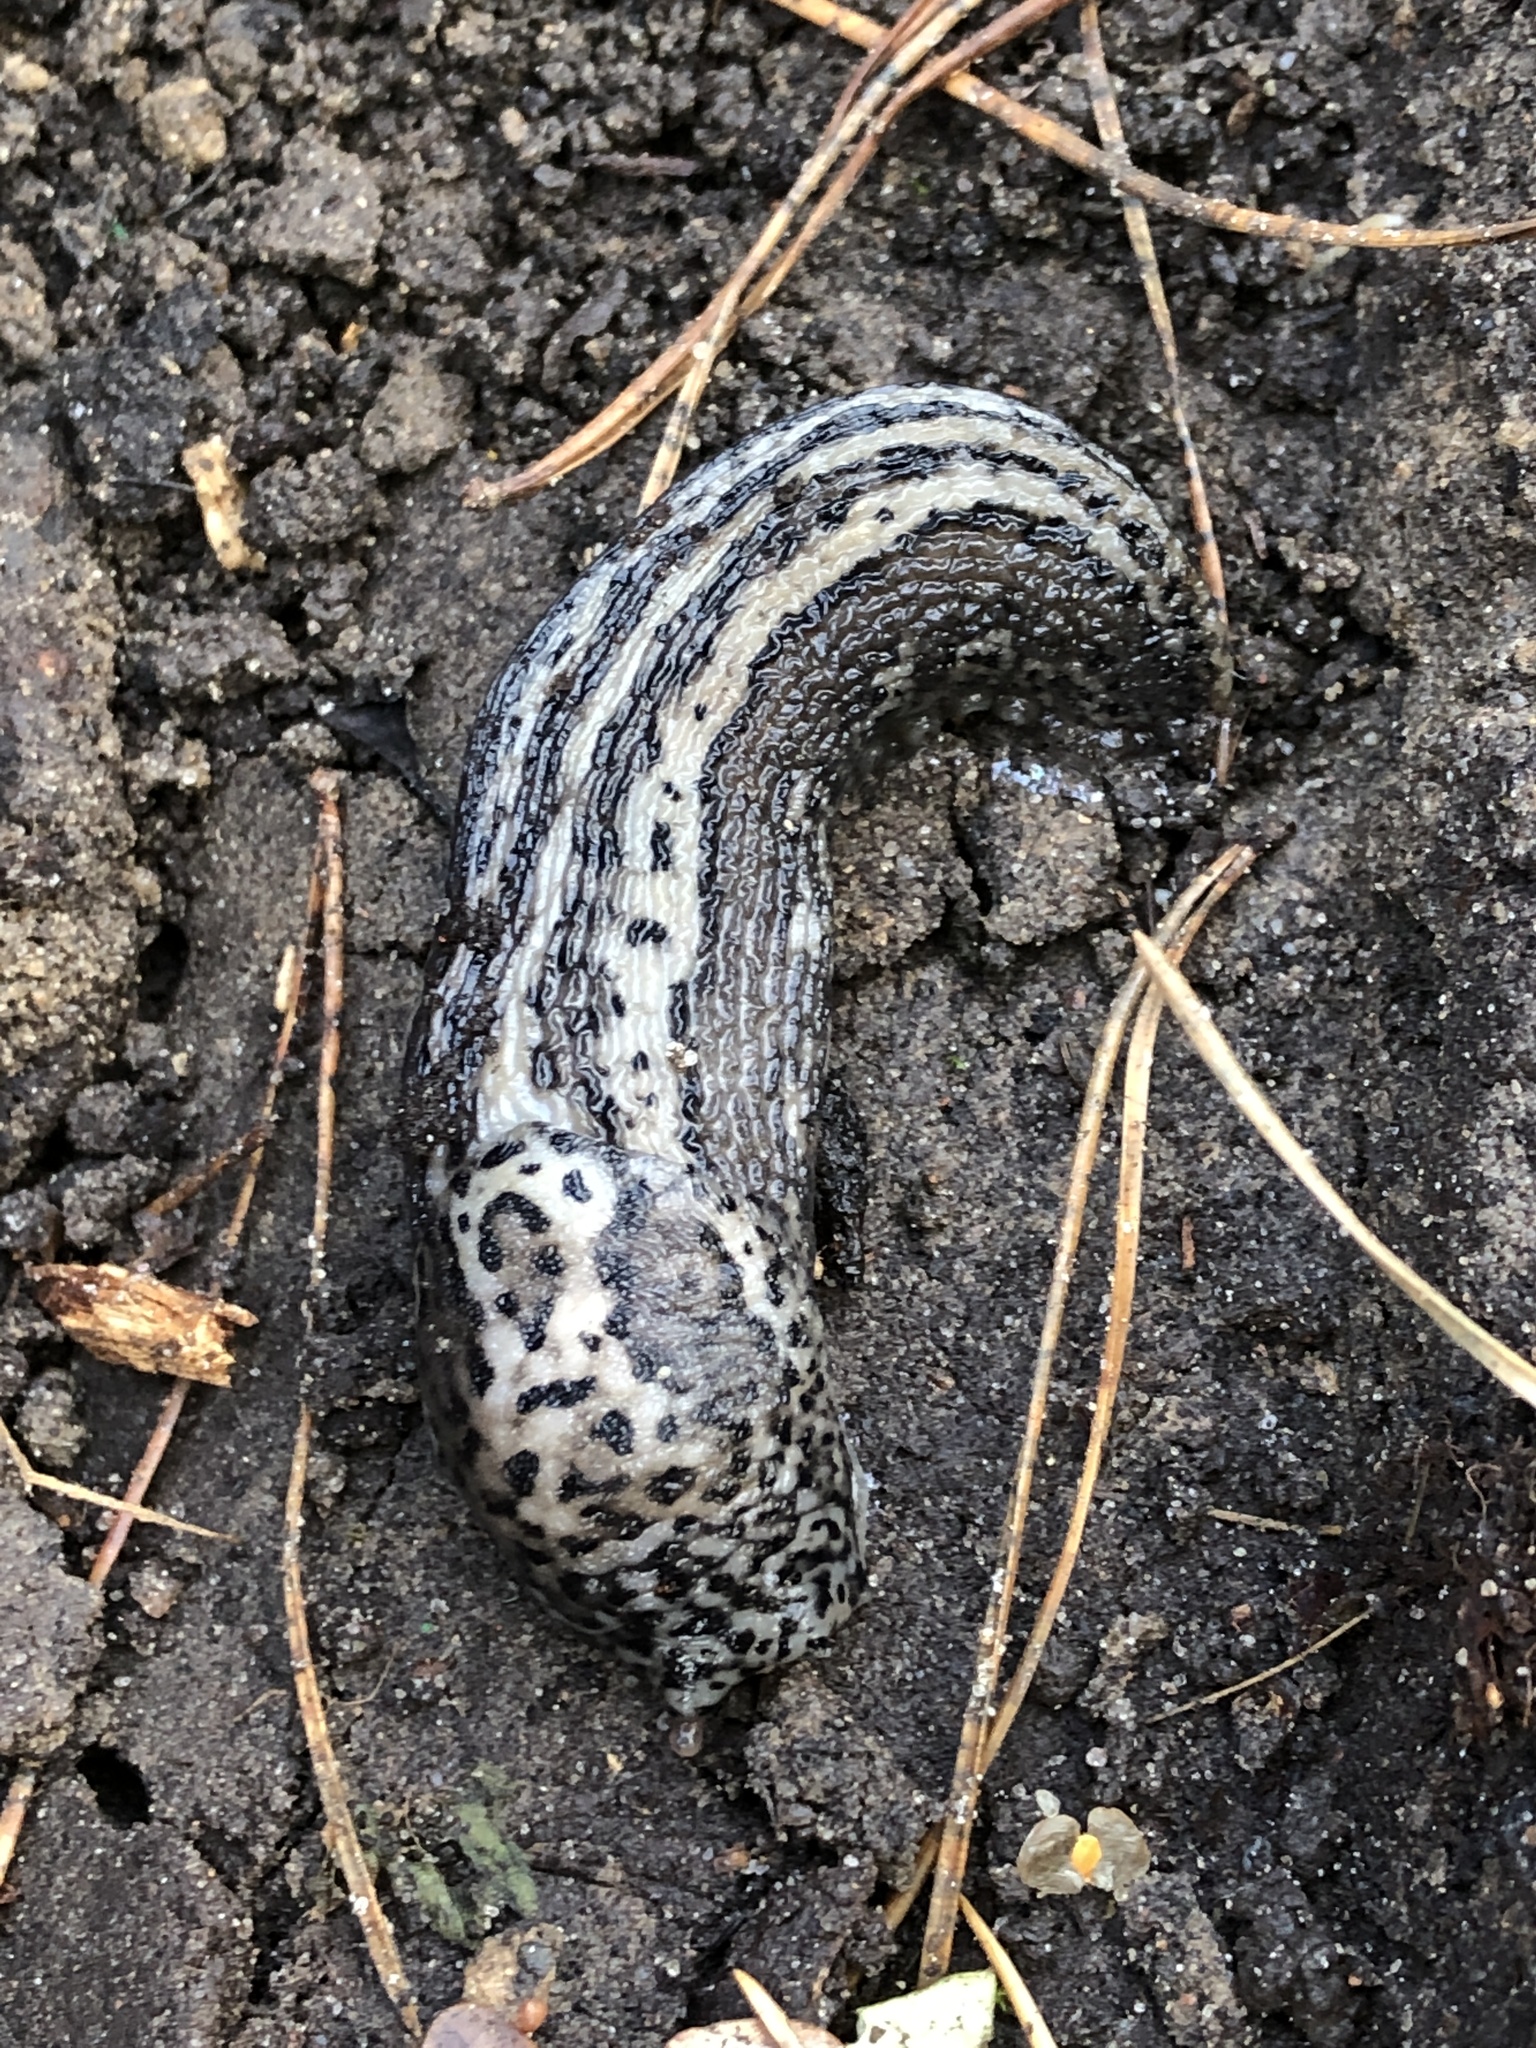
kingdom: Animalia
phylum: Mollusca
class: Gastropoda
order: Stylommatophora
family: Limacidae
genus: Limax
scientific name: Limax maximus
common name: Great grey slug
